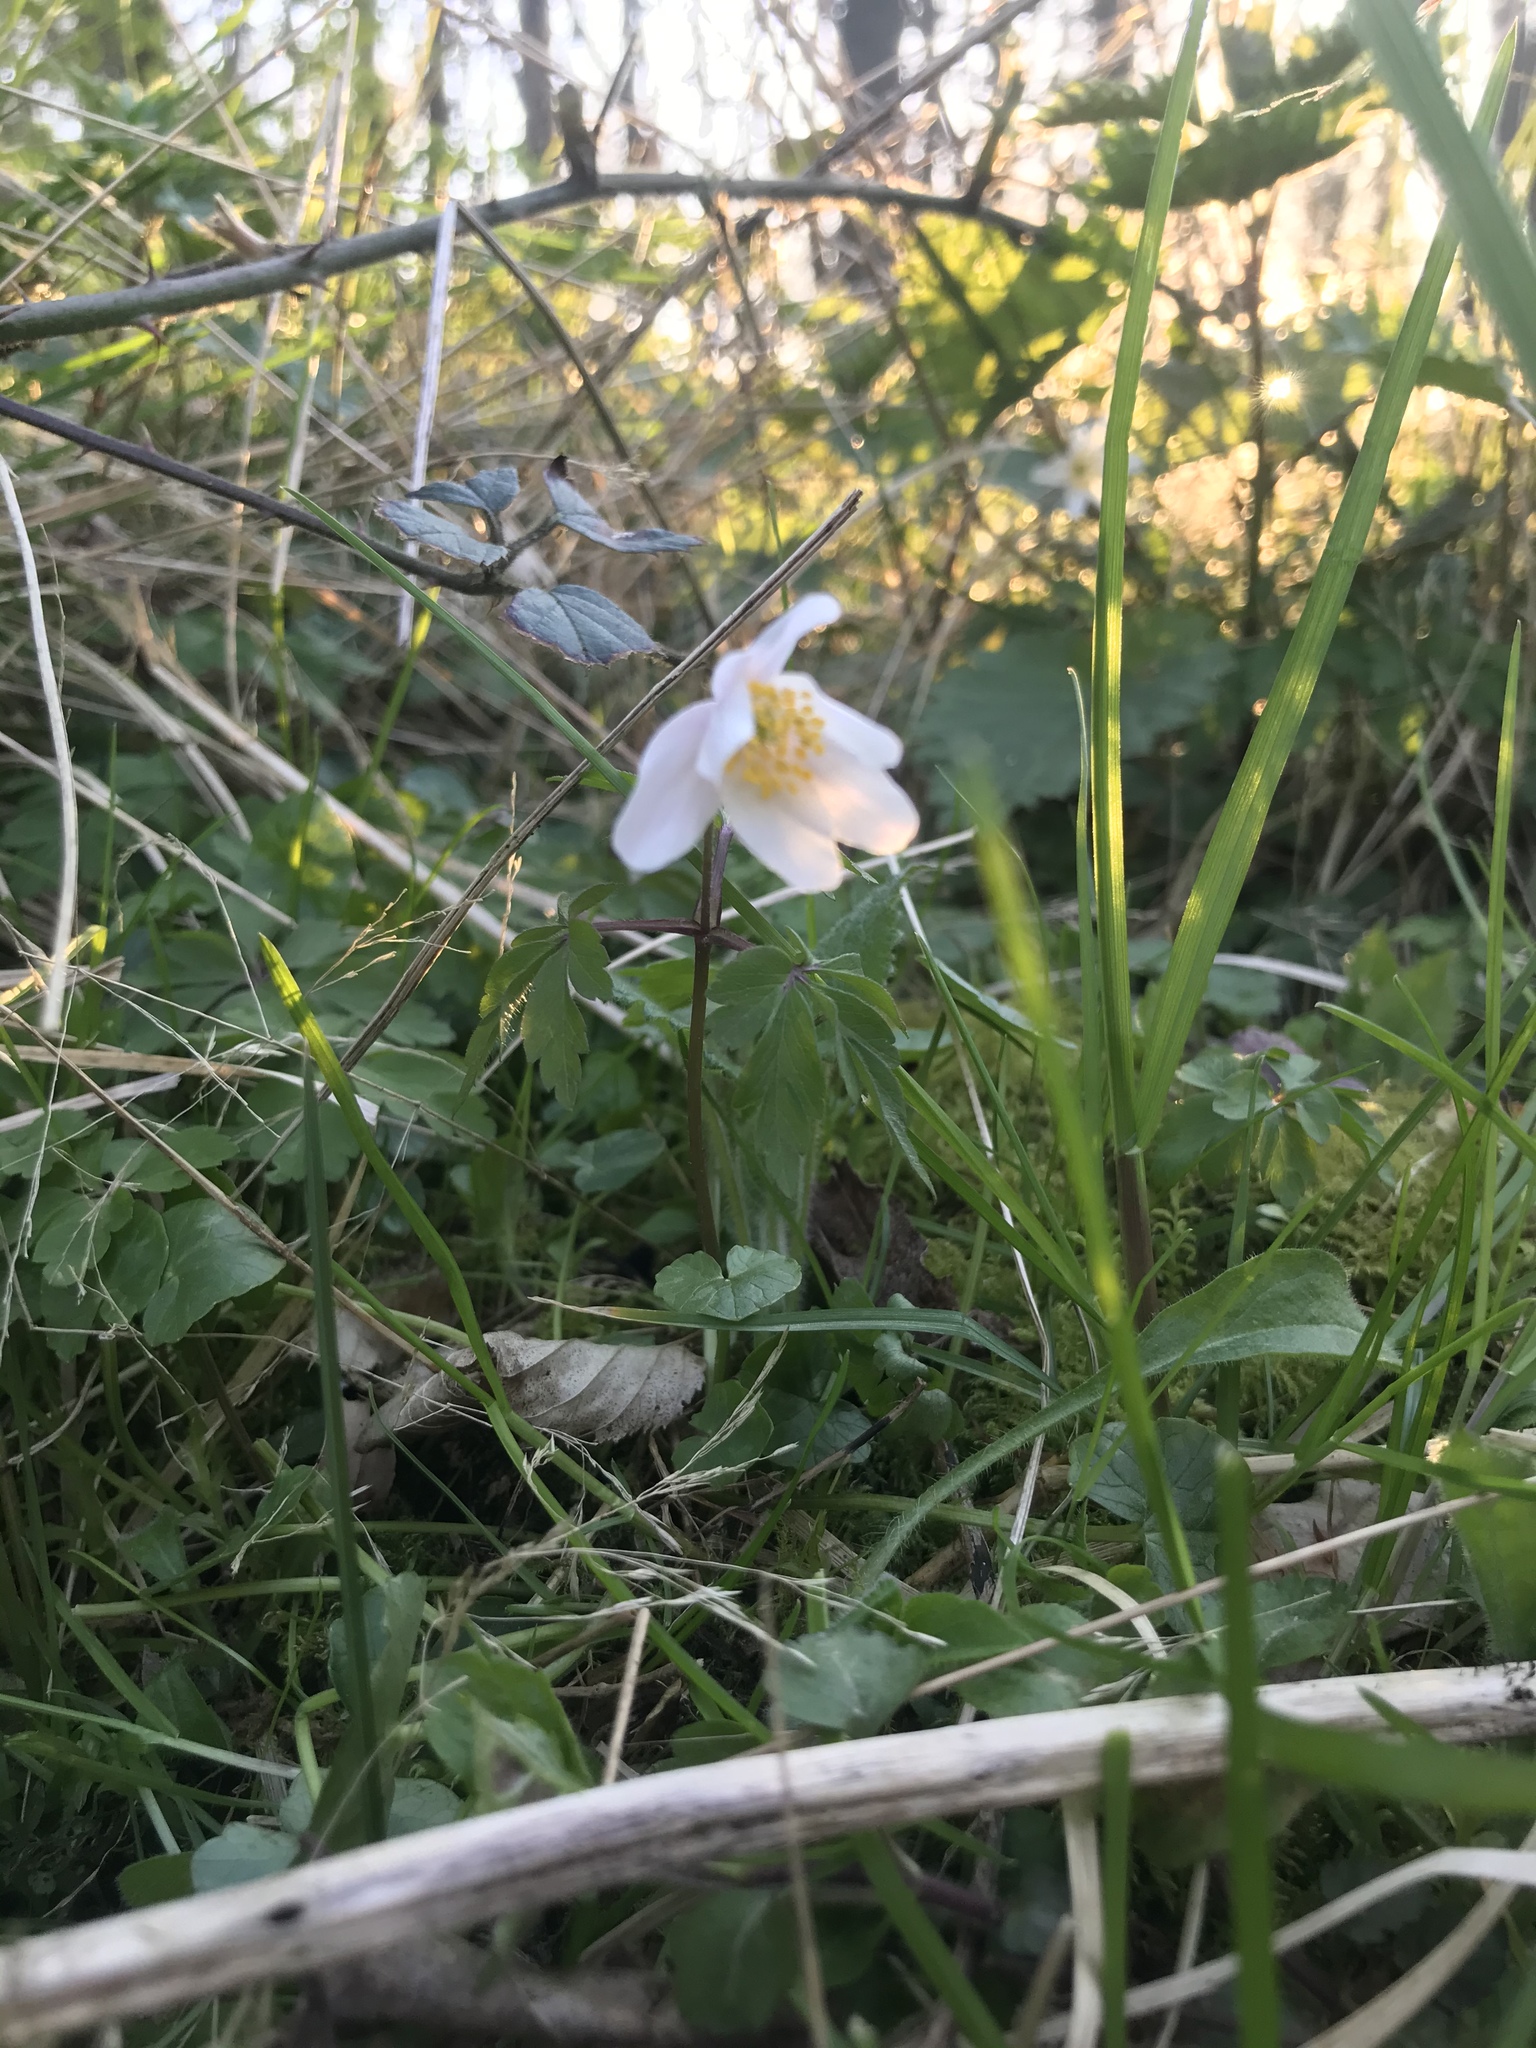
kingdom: Plantae
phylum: Tracheophyta
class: Magnoliopsida
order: Ranunculales
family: Ranunculaceae
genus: Anemone
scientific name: Anemone nemorosa
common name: Wood anemone
